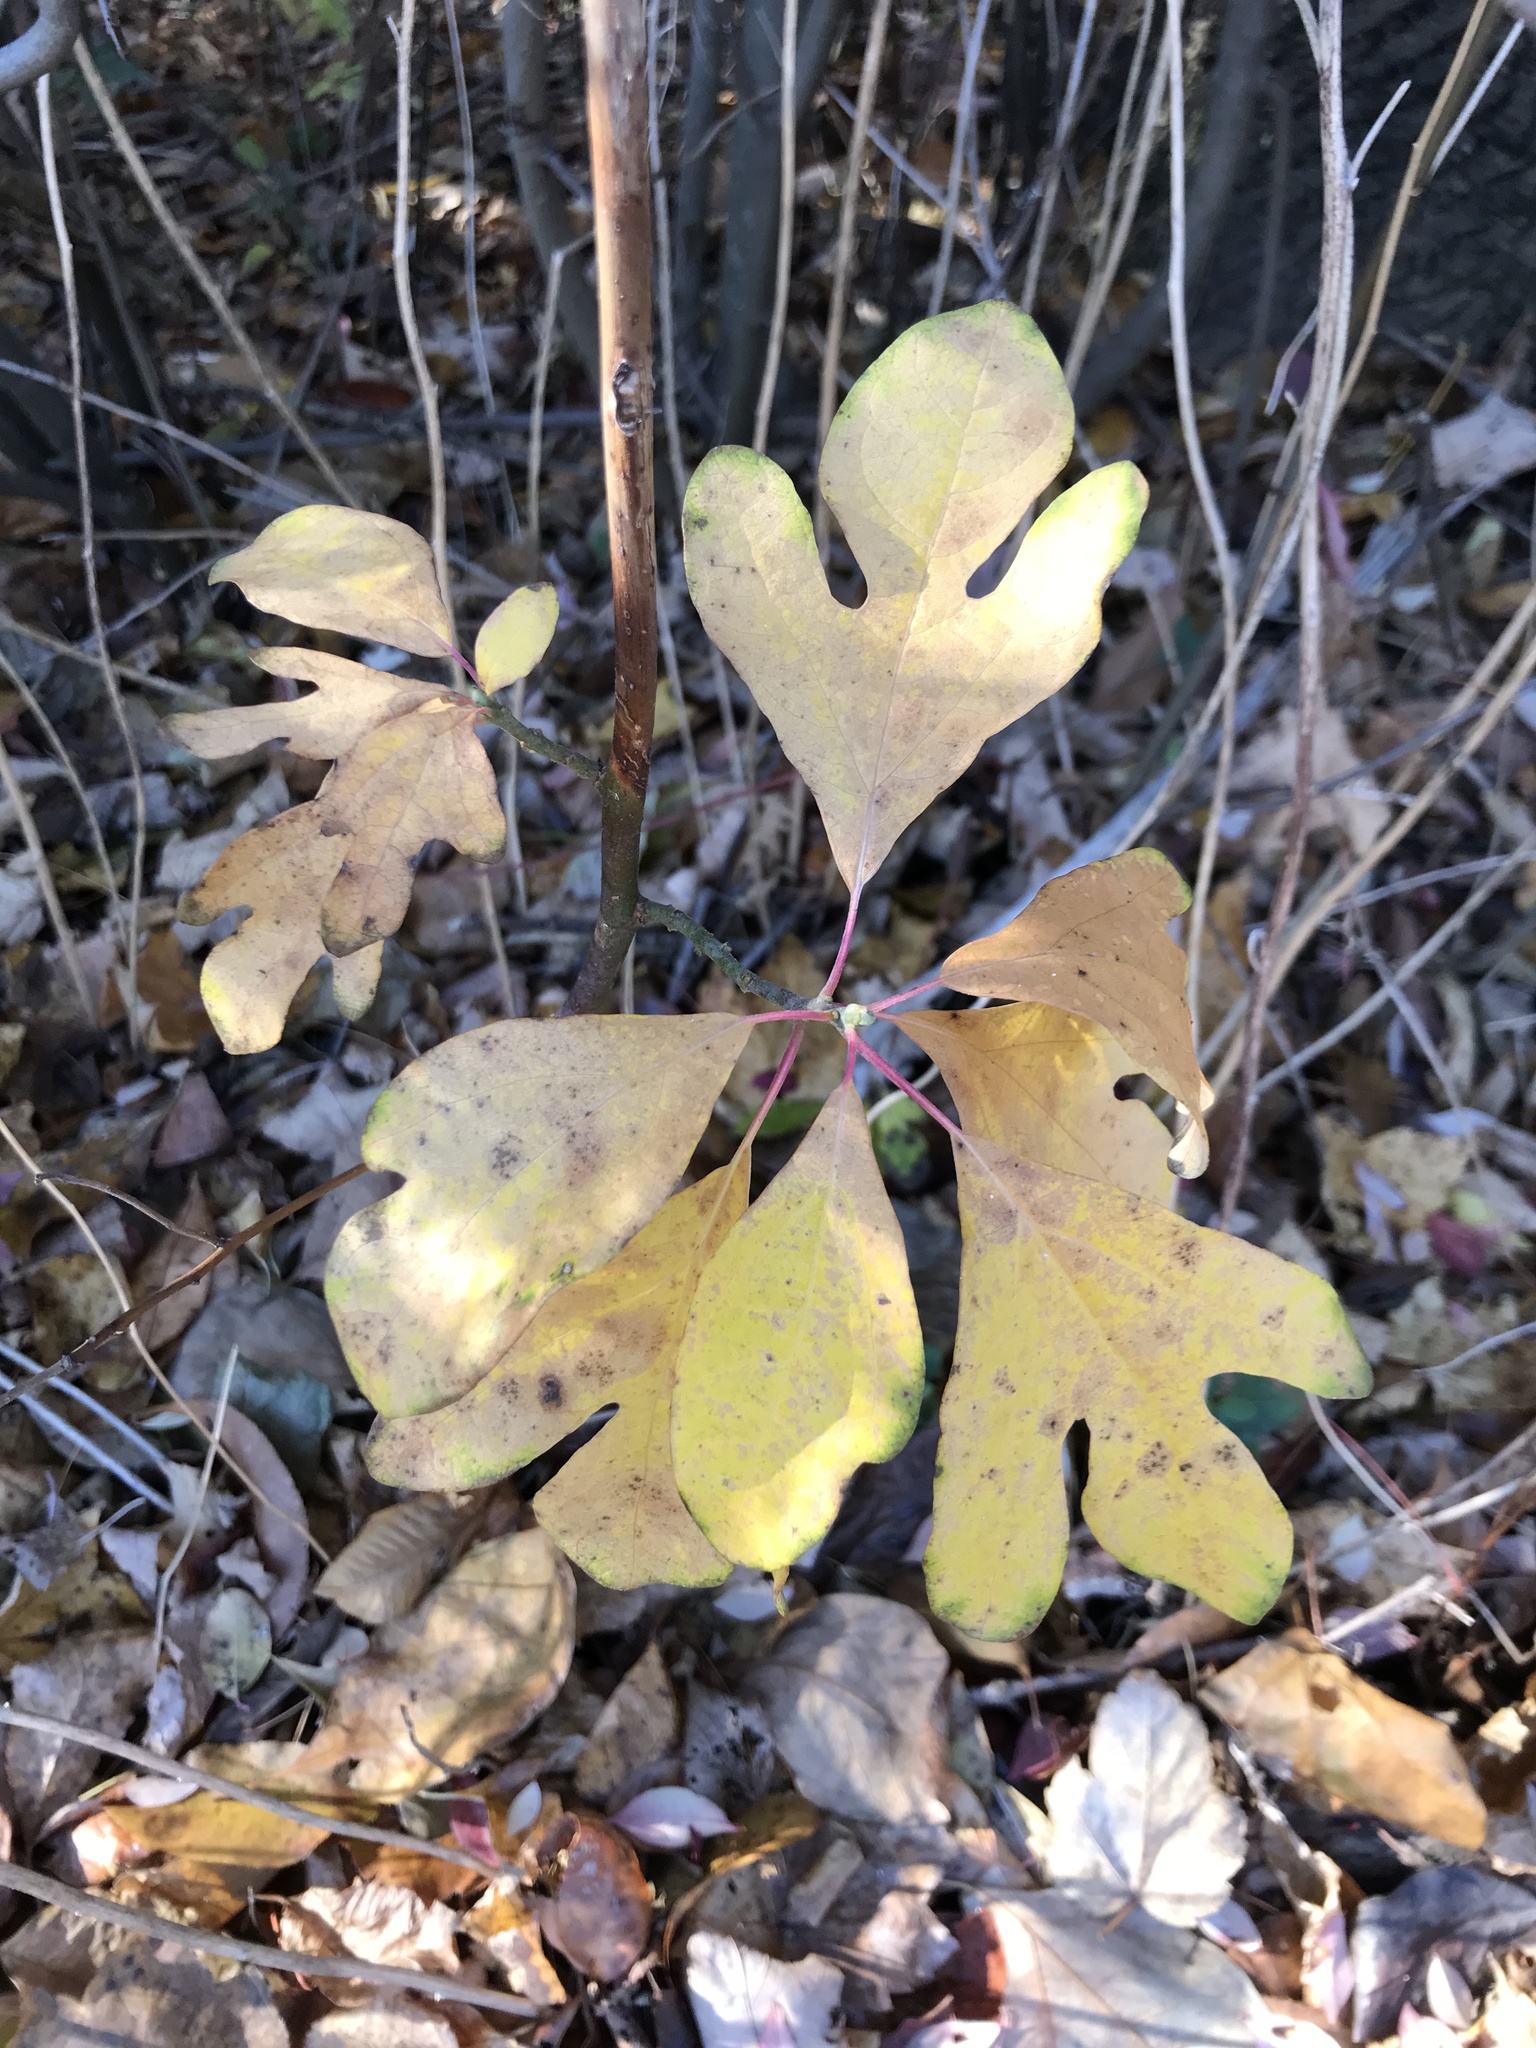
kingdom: Plantae
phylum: Tracheophyta
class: Magnoliopsida
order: Laurales
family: Lauraceae
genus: Sassafras
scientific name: Sassafras albidum
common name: Sassafras
